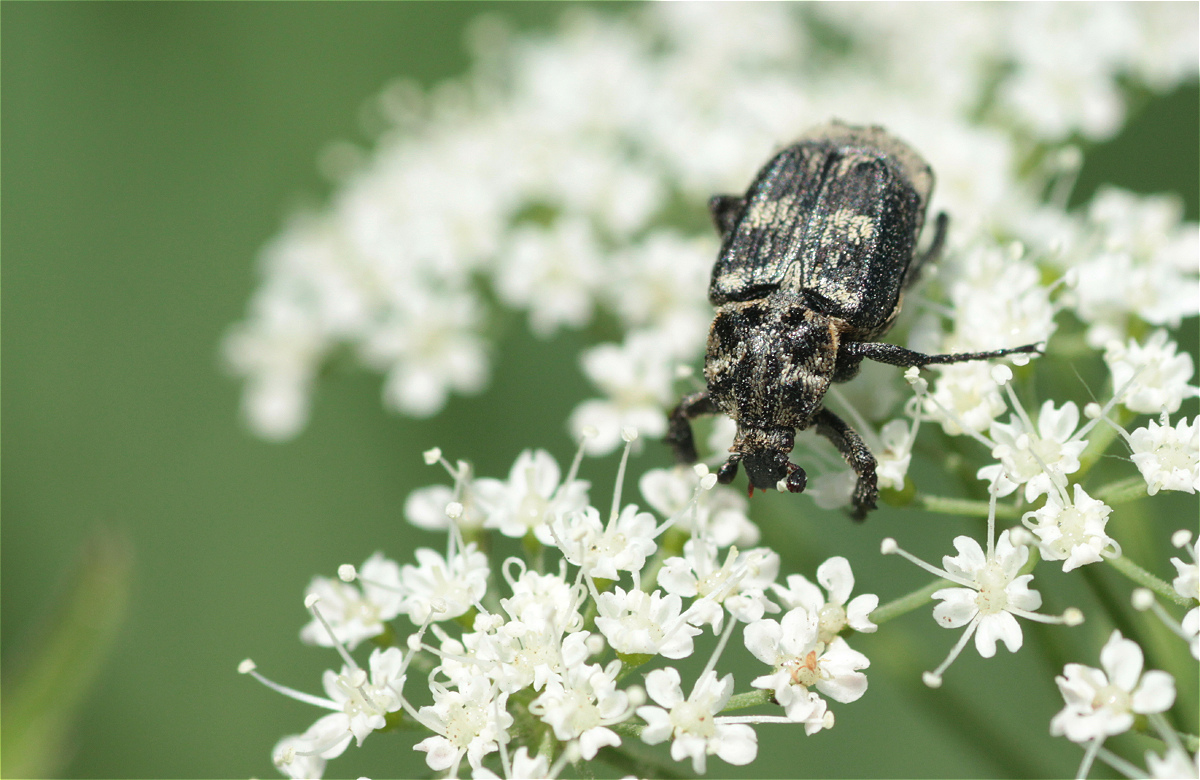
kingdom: Animalia
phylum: Arthropoda
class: Insecta
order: Coleoptera
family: Scarabaeidae
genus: Valgus
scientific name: Valgus hemipterus
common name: Bug flower chafer
